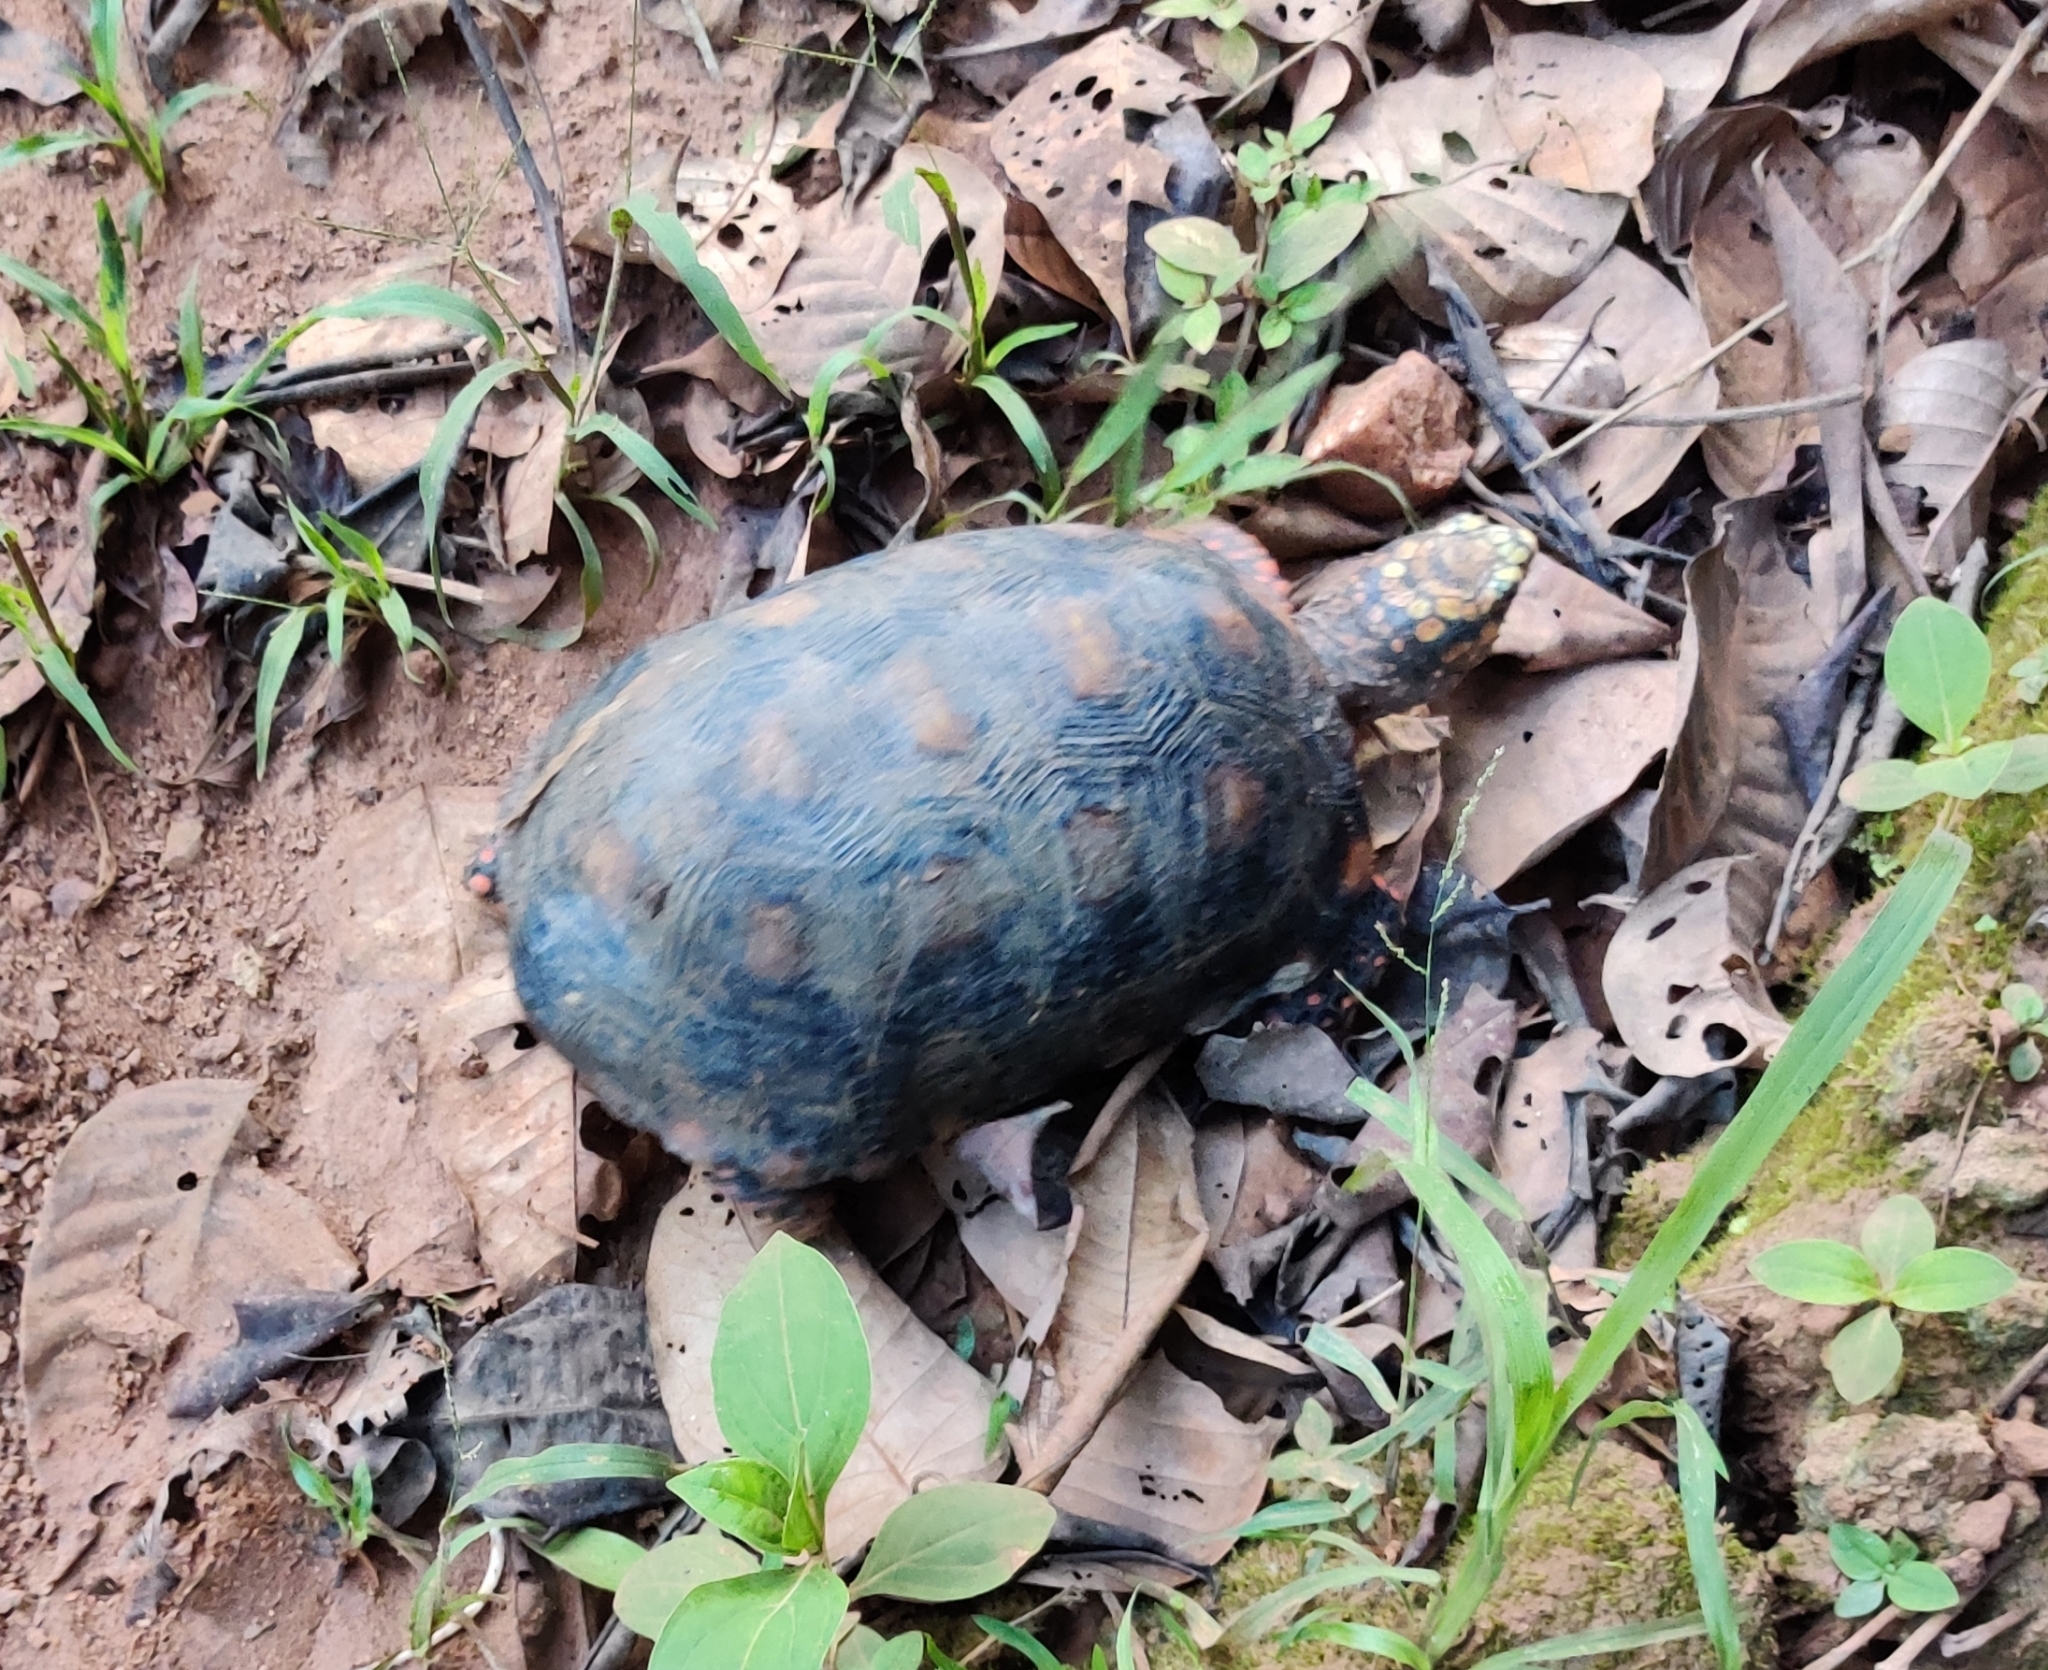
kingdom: Animalia
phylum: Chordata
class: Testudines
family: Testudinidae
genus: Chelonoidis
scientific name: Chelonoidis carbonarius
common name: Red-footed tortoise
